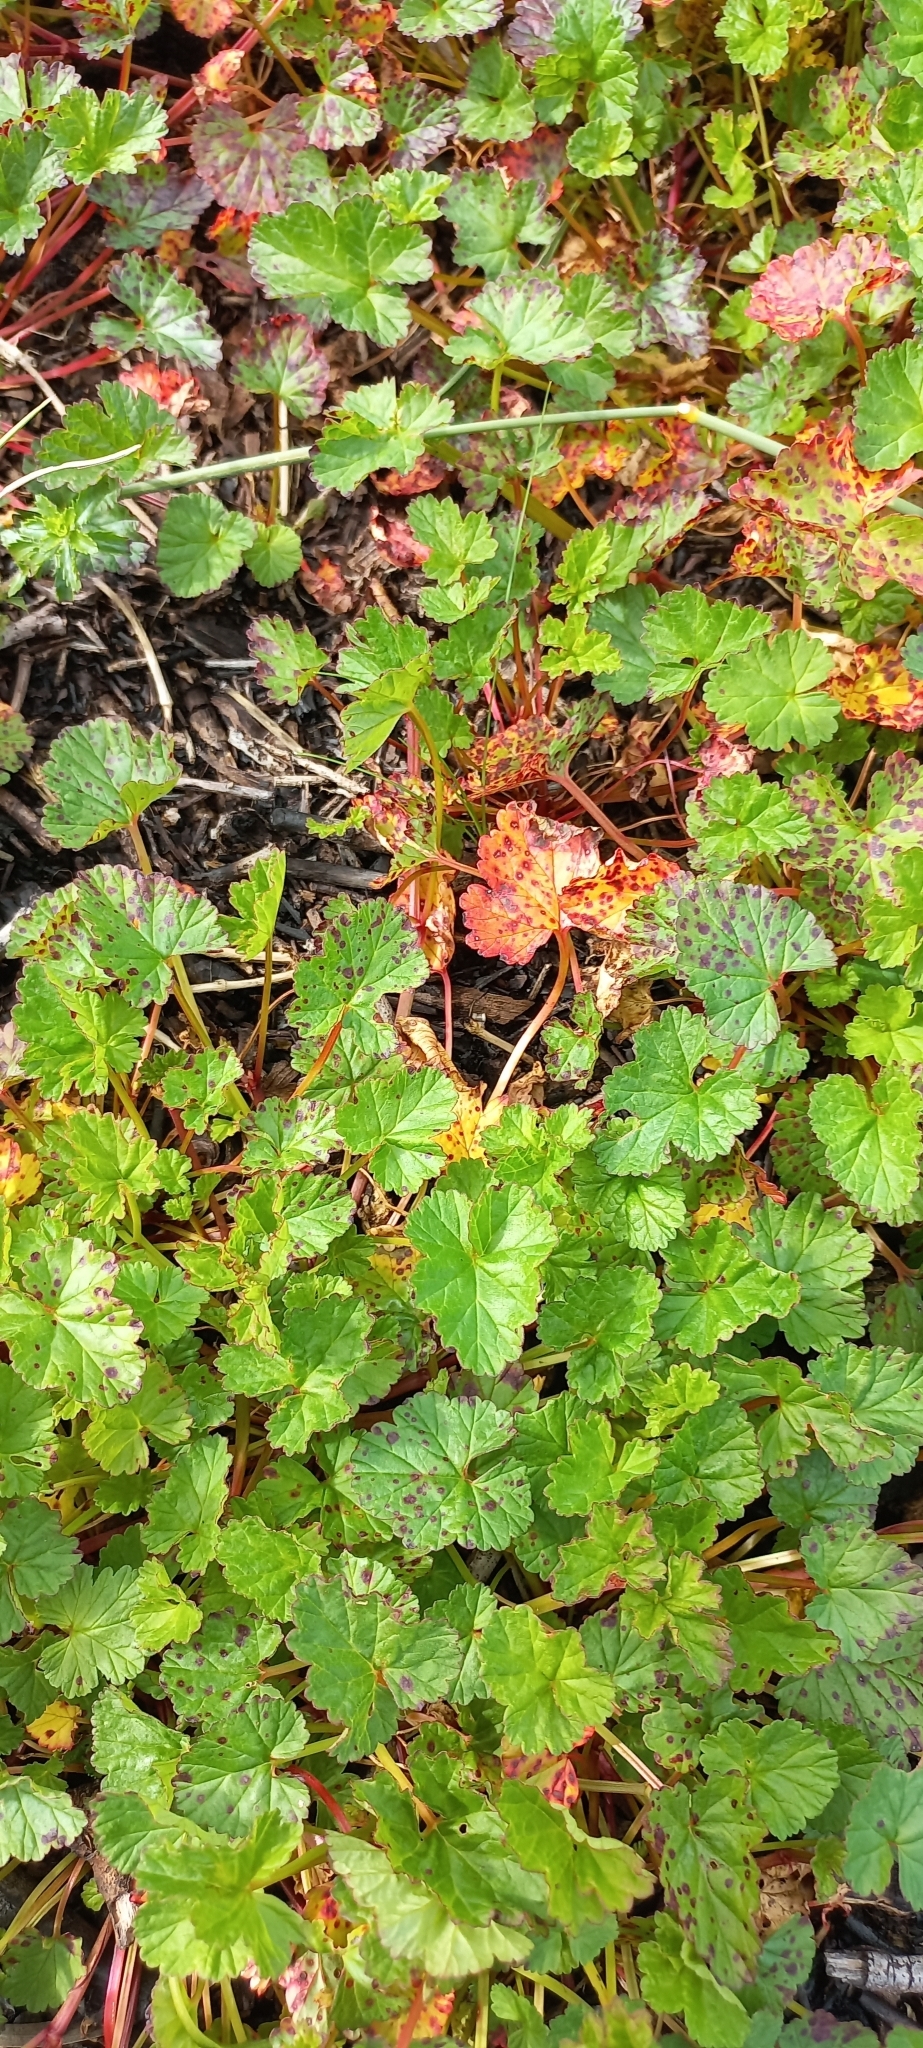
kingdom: Plantae
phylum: Tracheophyta
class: Magnoliopsida
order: Geraniales
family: Geraniaceae
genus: Pelargonium
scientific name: Pelargonium grossularioides
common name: Gooseberry geranium
